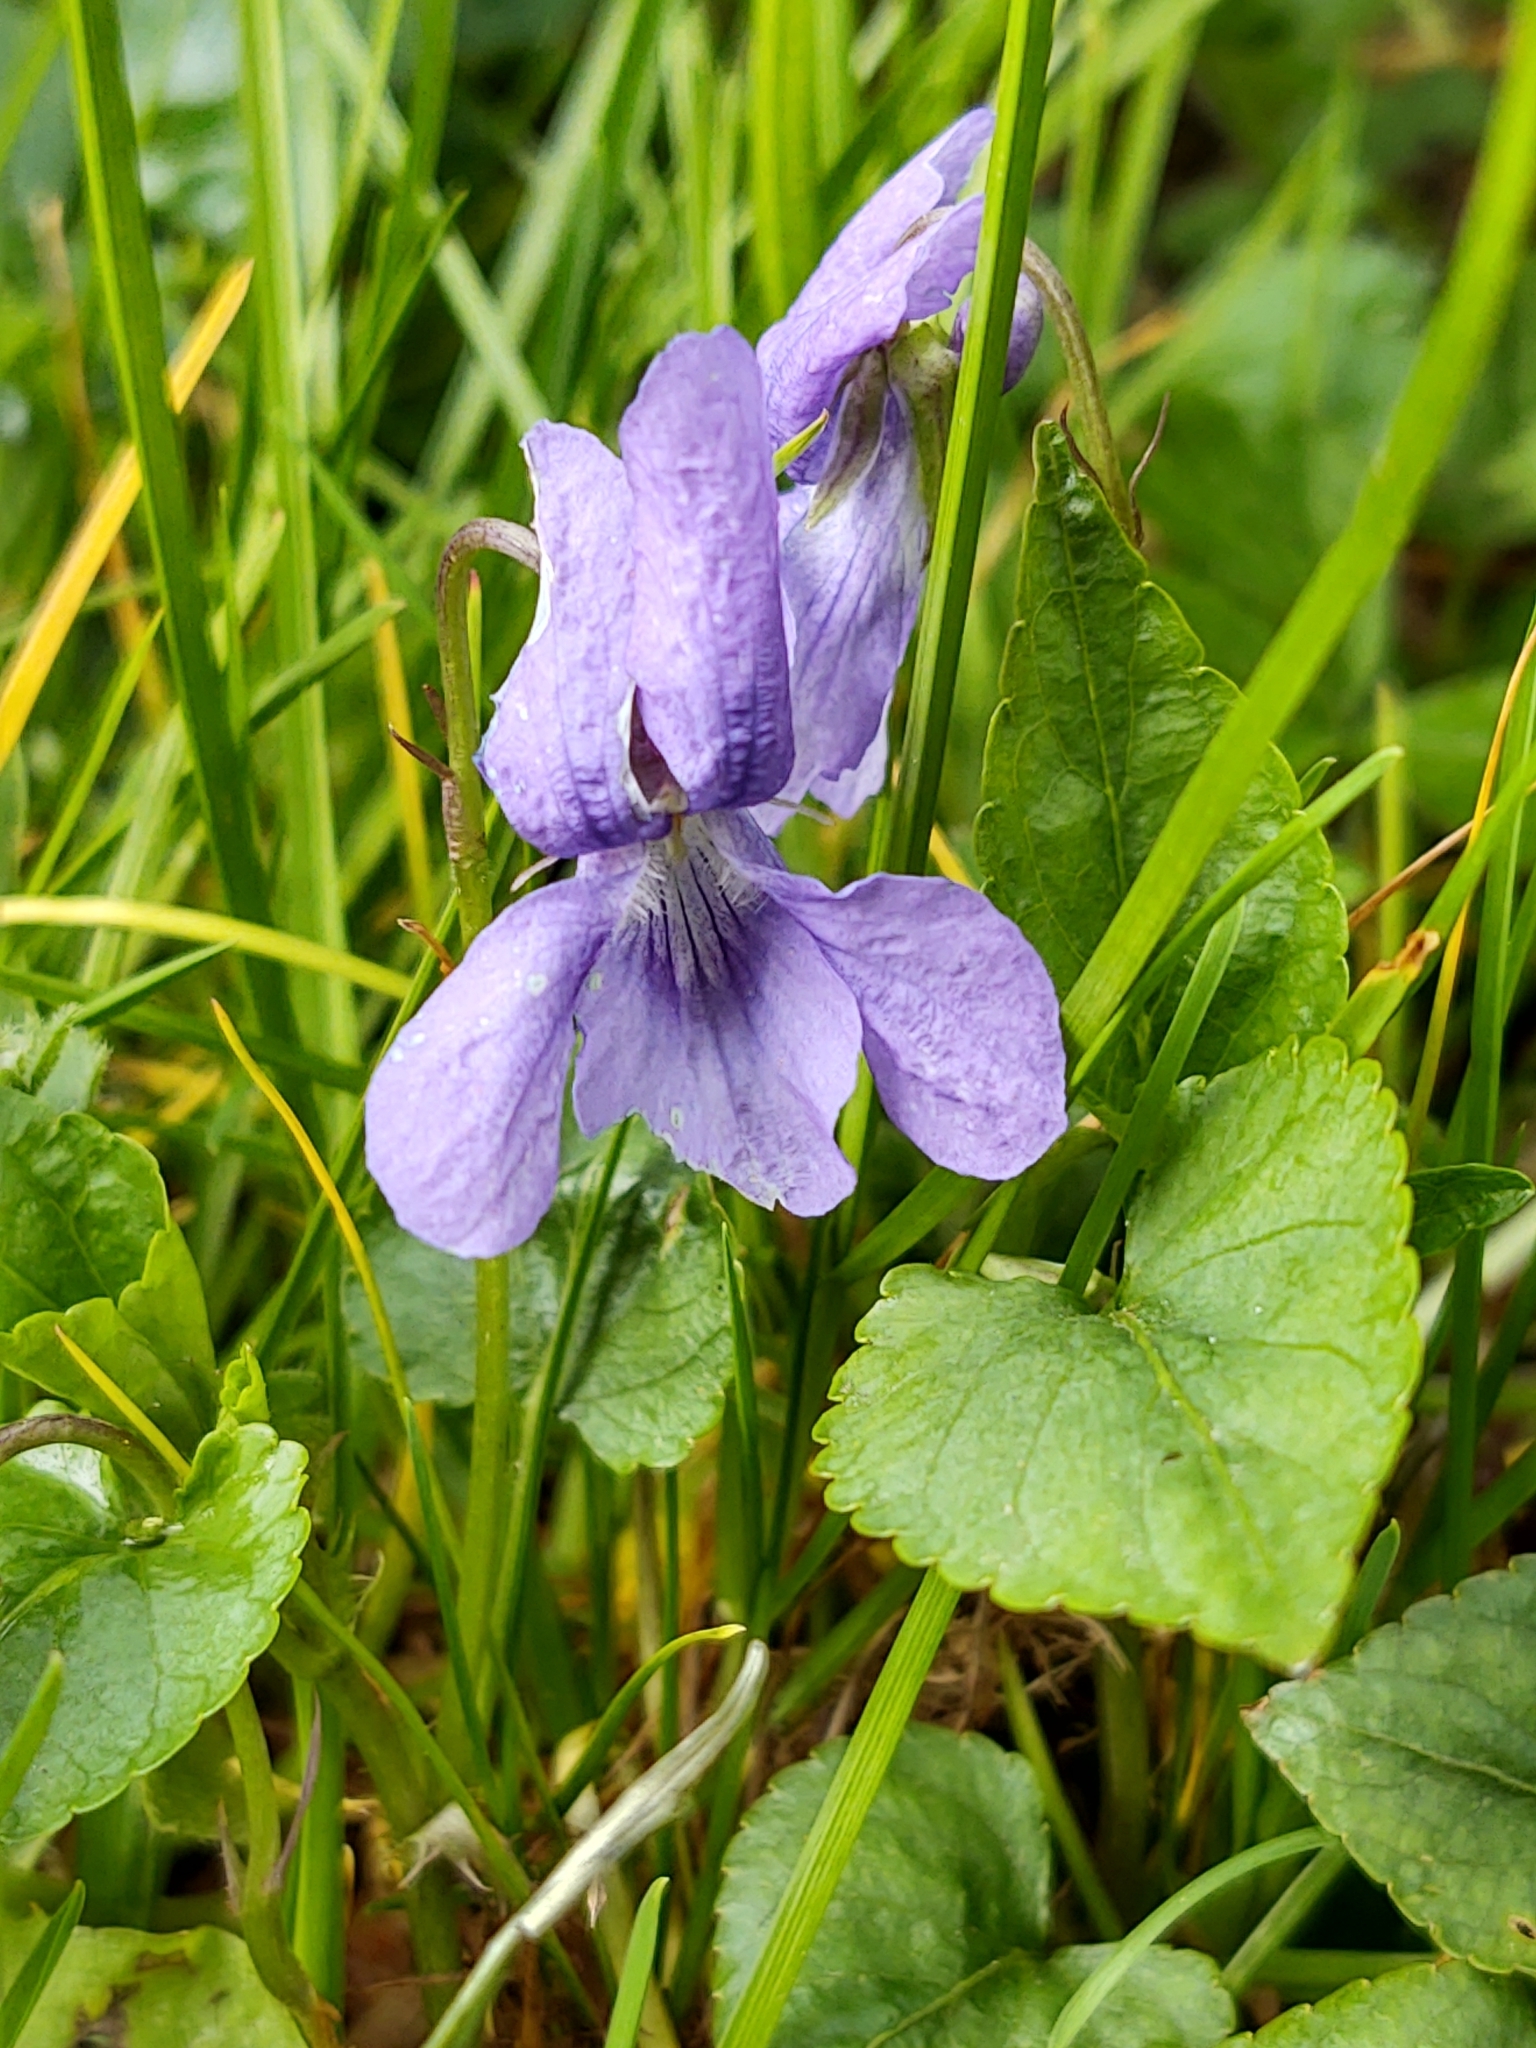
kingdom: Plantae
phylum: Tracheophyta
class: Magnoliopsida
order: Malpighiales
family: Violaceae
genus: Viola
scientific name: Viola reichenbachiana
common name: Early dog-violet
